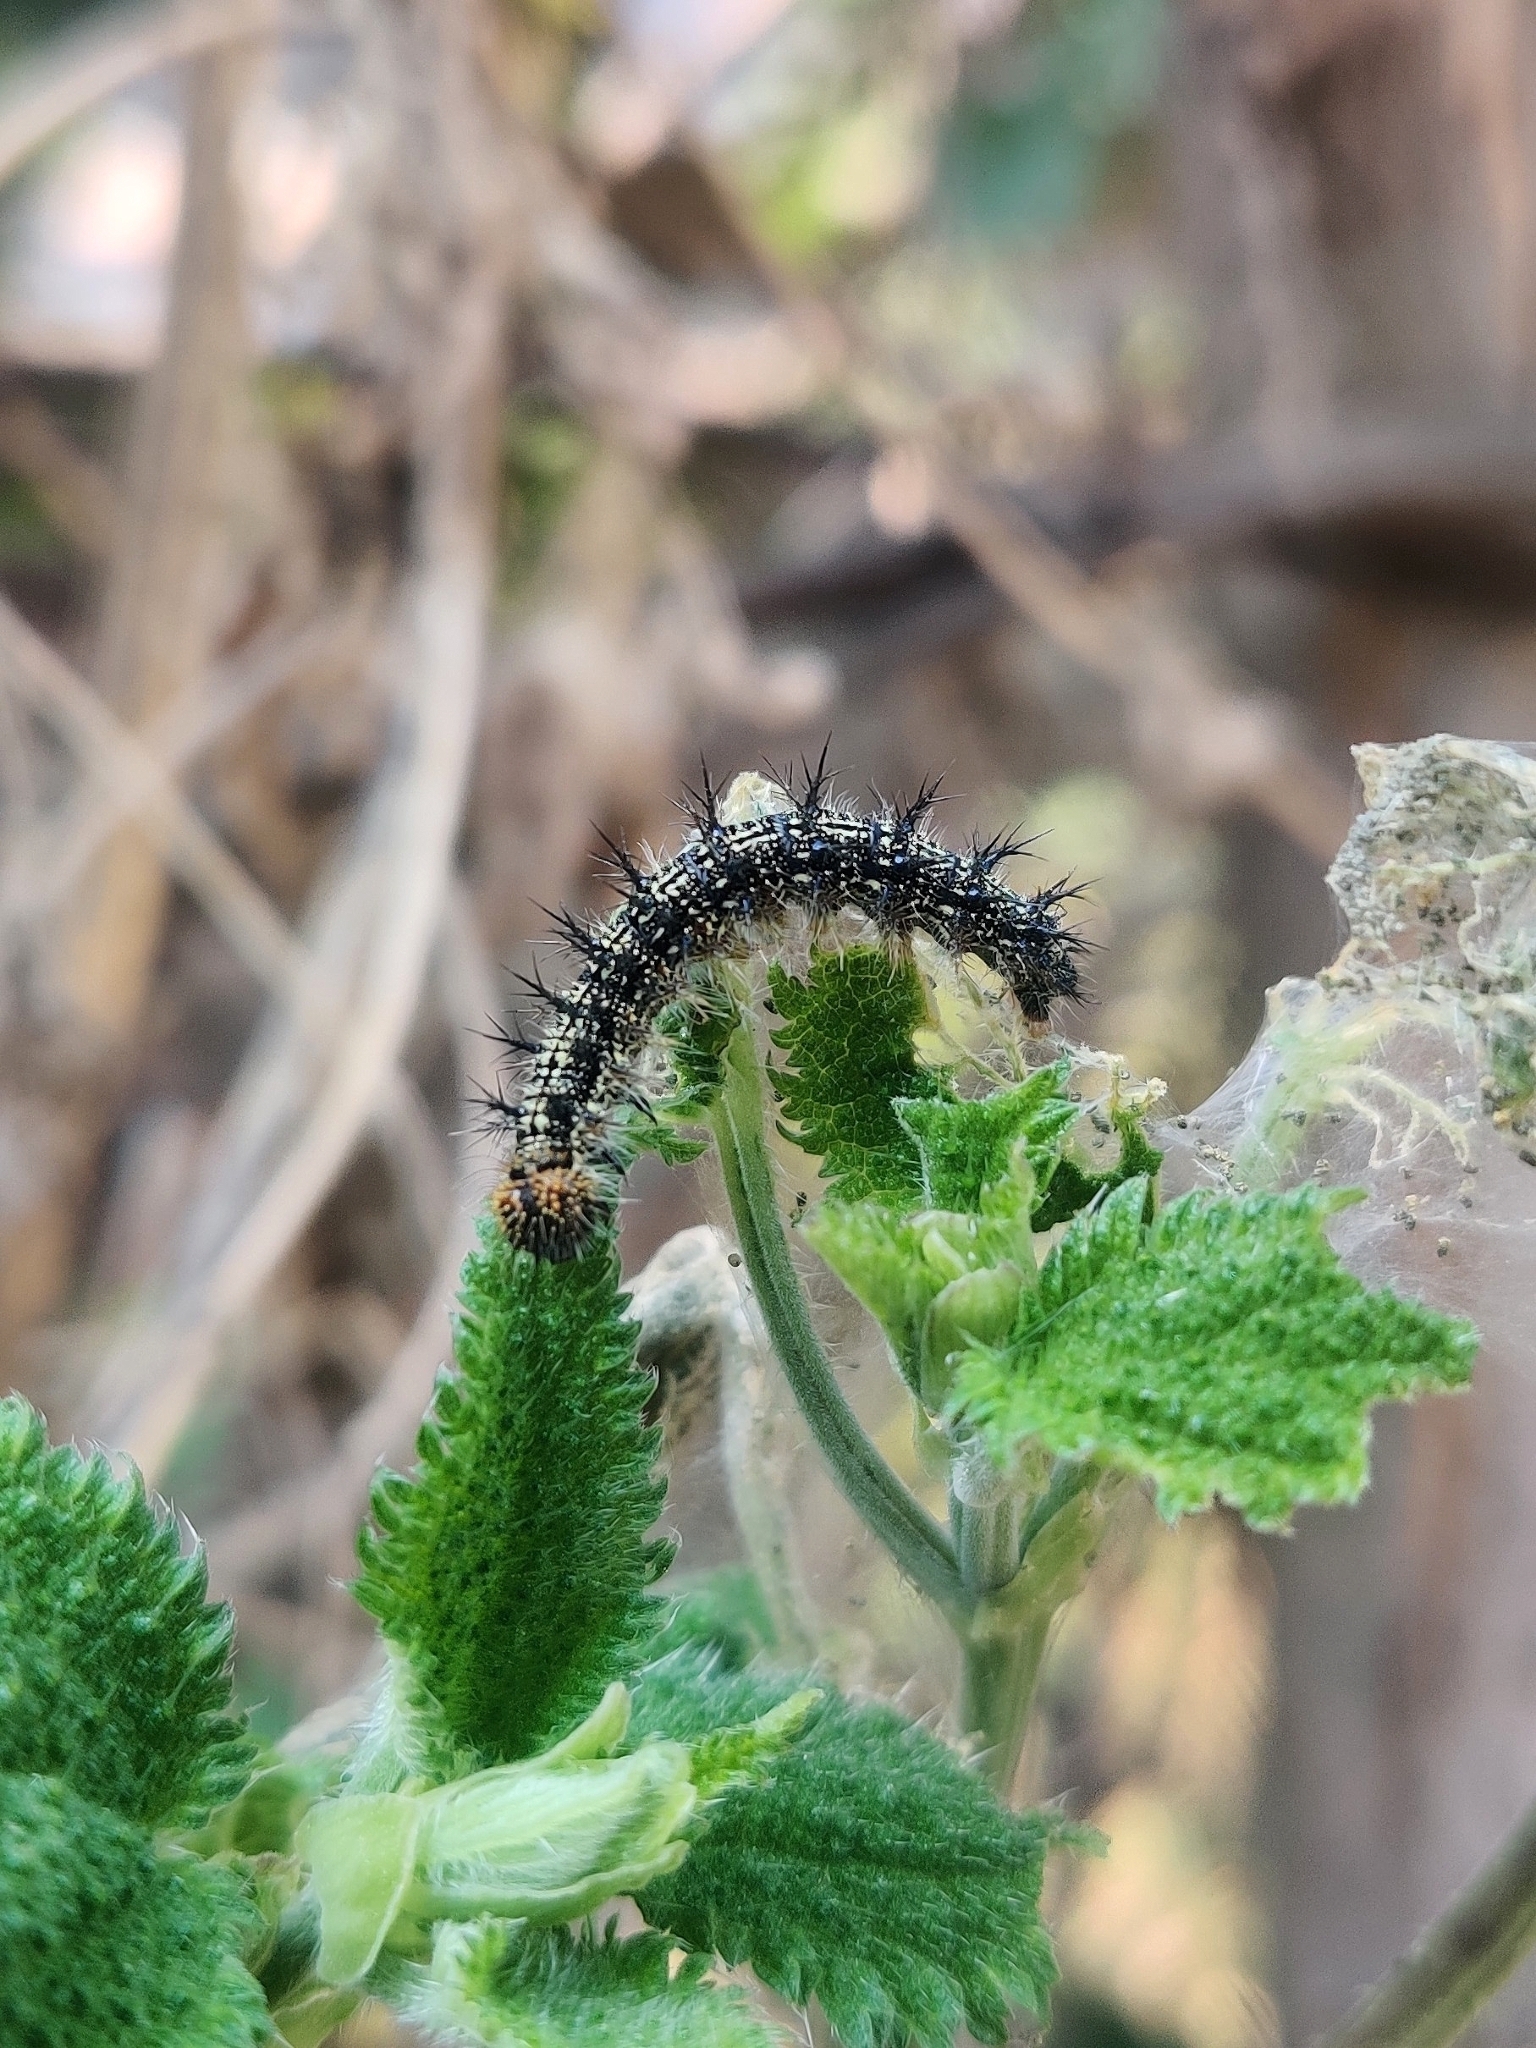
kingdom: Animalia
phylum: Arthropoda
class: Insecta
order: Lepidoptera
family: Nymphalidae
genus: Aglais
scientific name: Aglais caschmirensis
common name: Indian tortoiseshell
